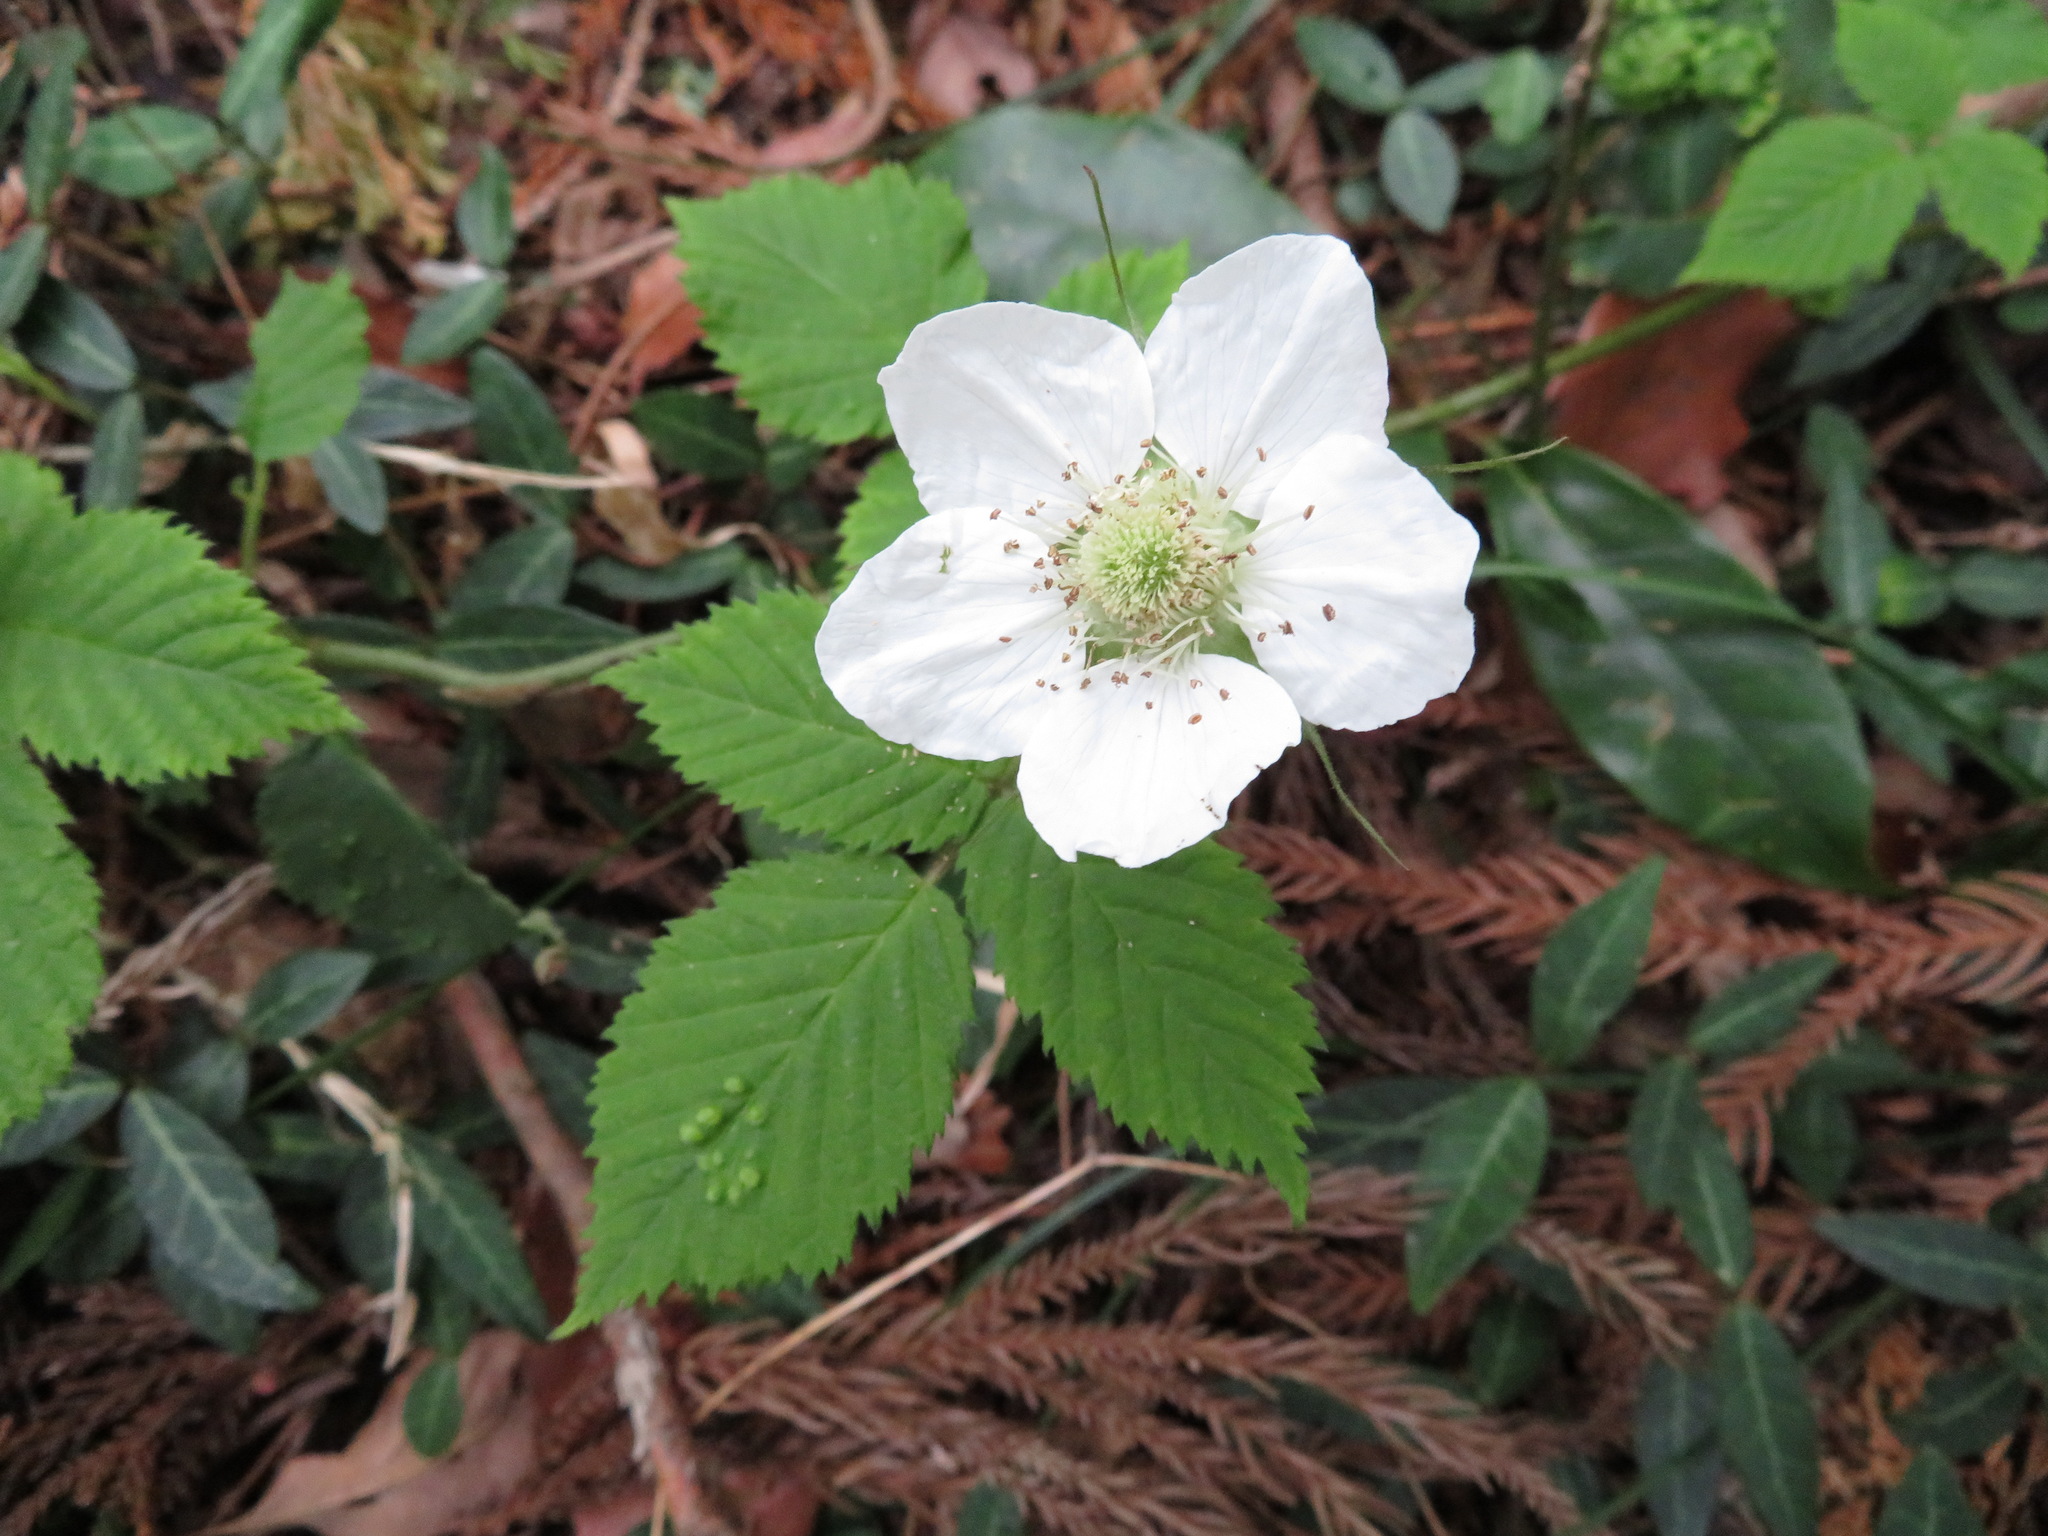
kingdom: Plantae
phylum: Tracheophyta
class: Magnoliopsida
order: Rosales
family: Rosaceae
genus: Rubus
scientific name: Rubus hirsutus
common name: Hirsute raspberry
